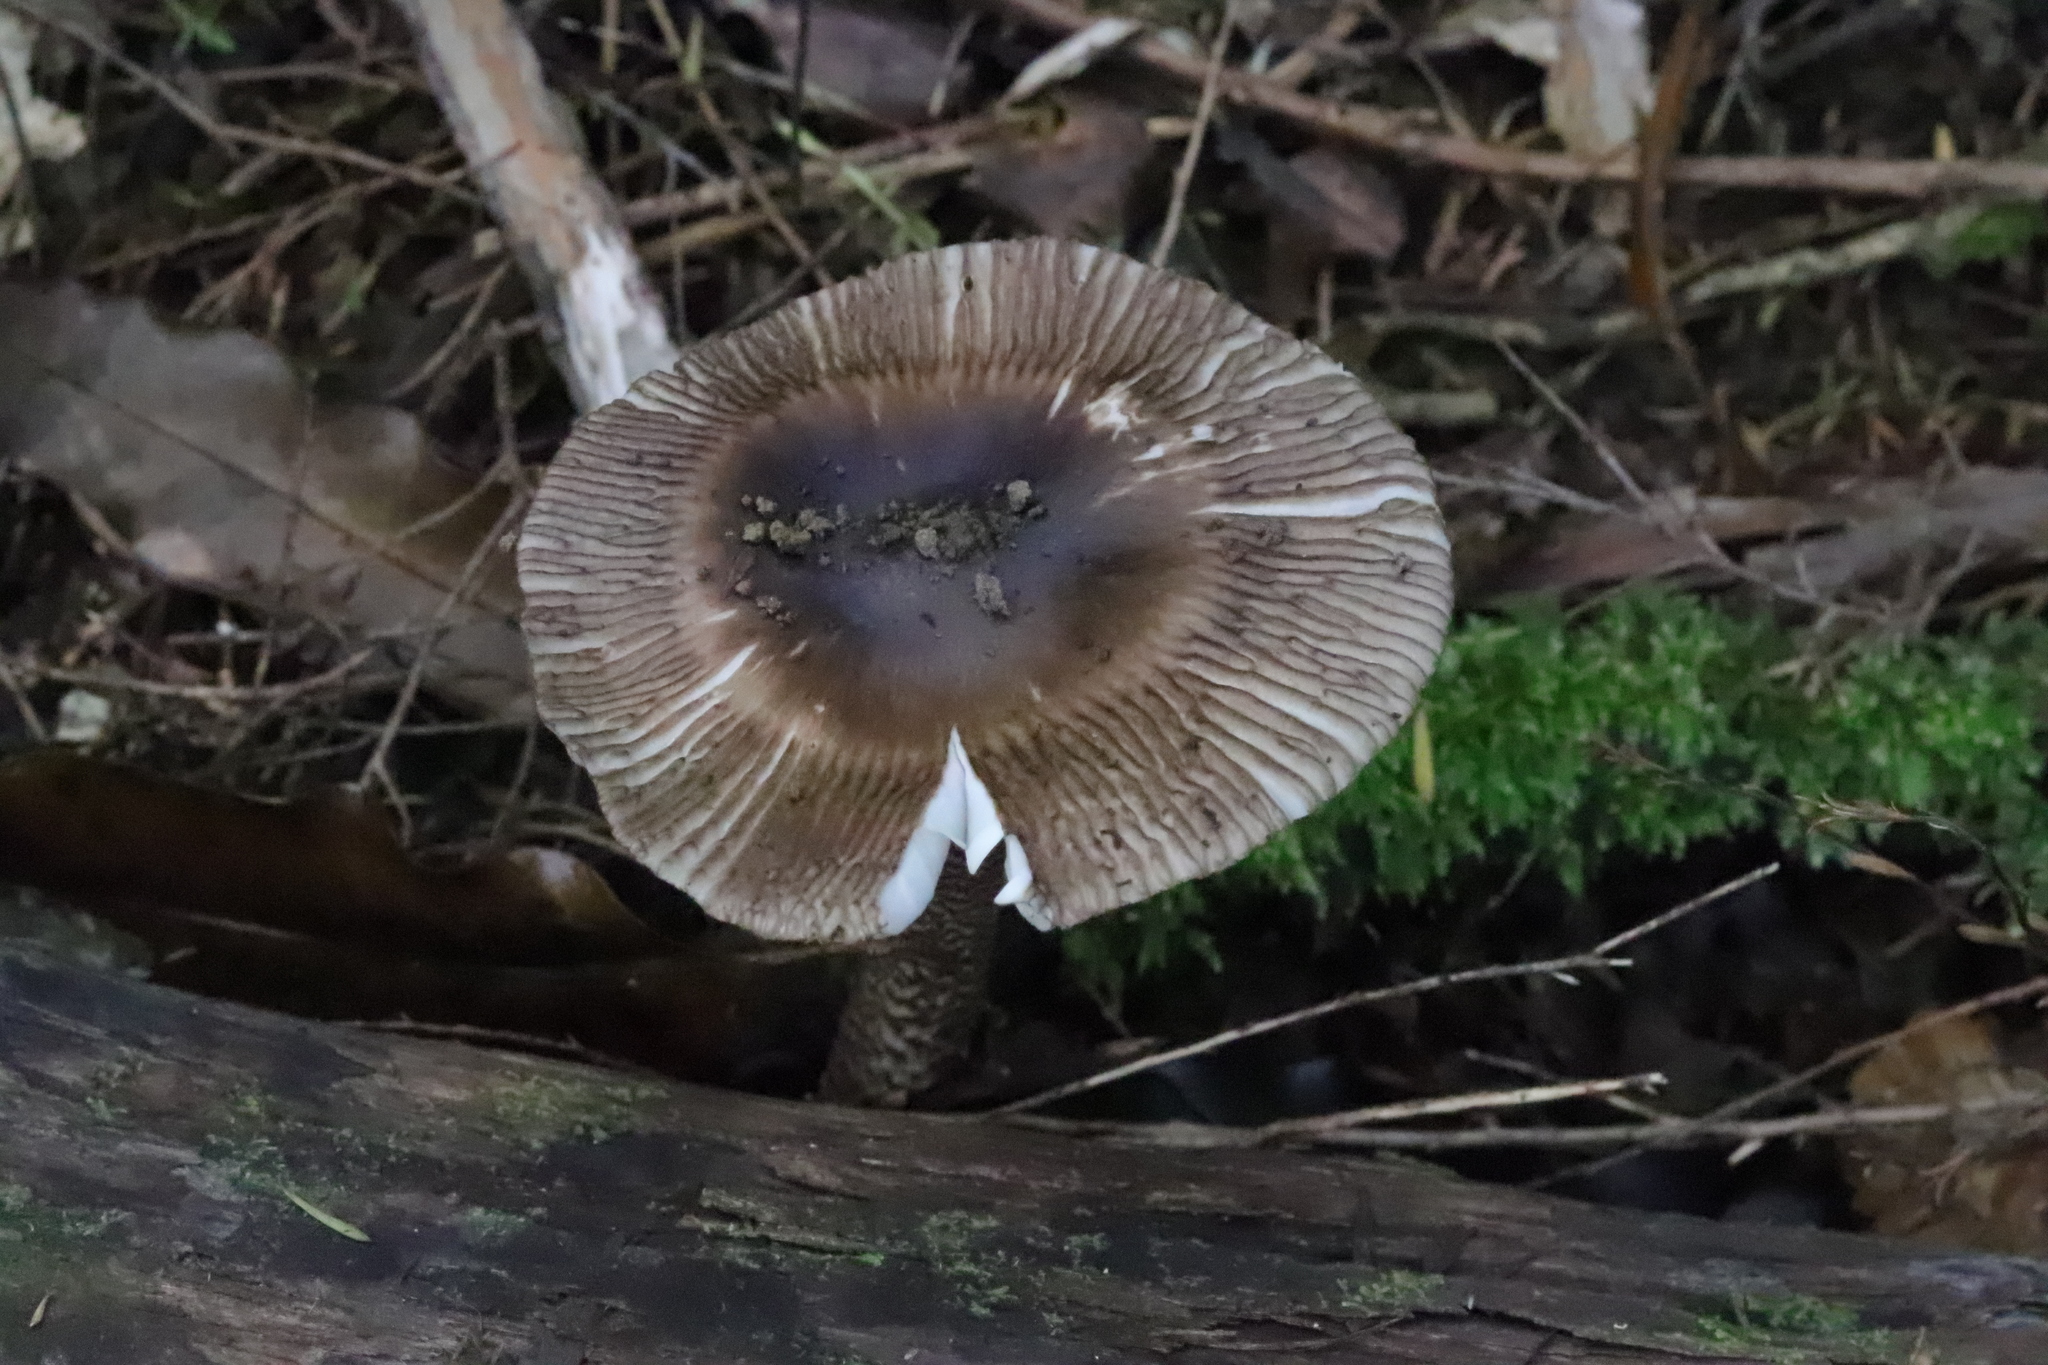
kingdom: Fungi
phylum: Basidiomycota
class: Agaricomycetes
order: Agaricales
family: Amanitaceae
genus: Amanita
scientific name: Amanita pekeoides
